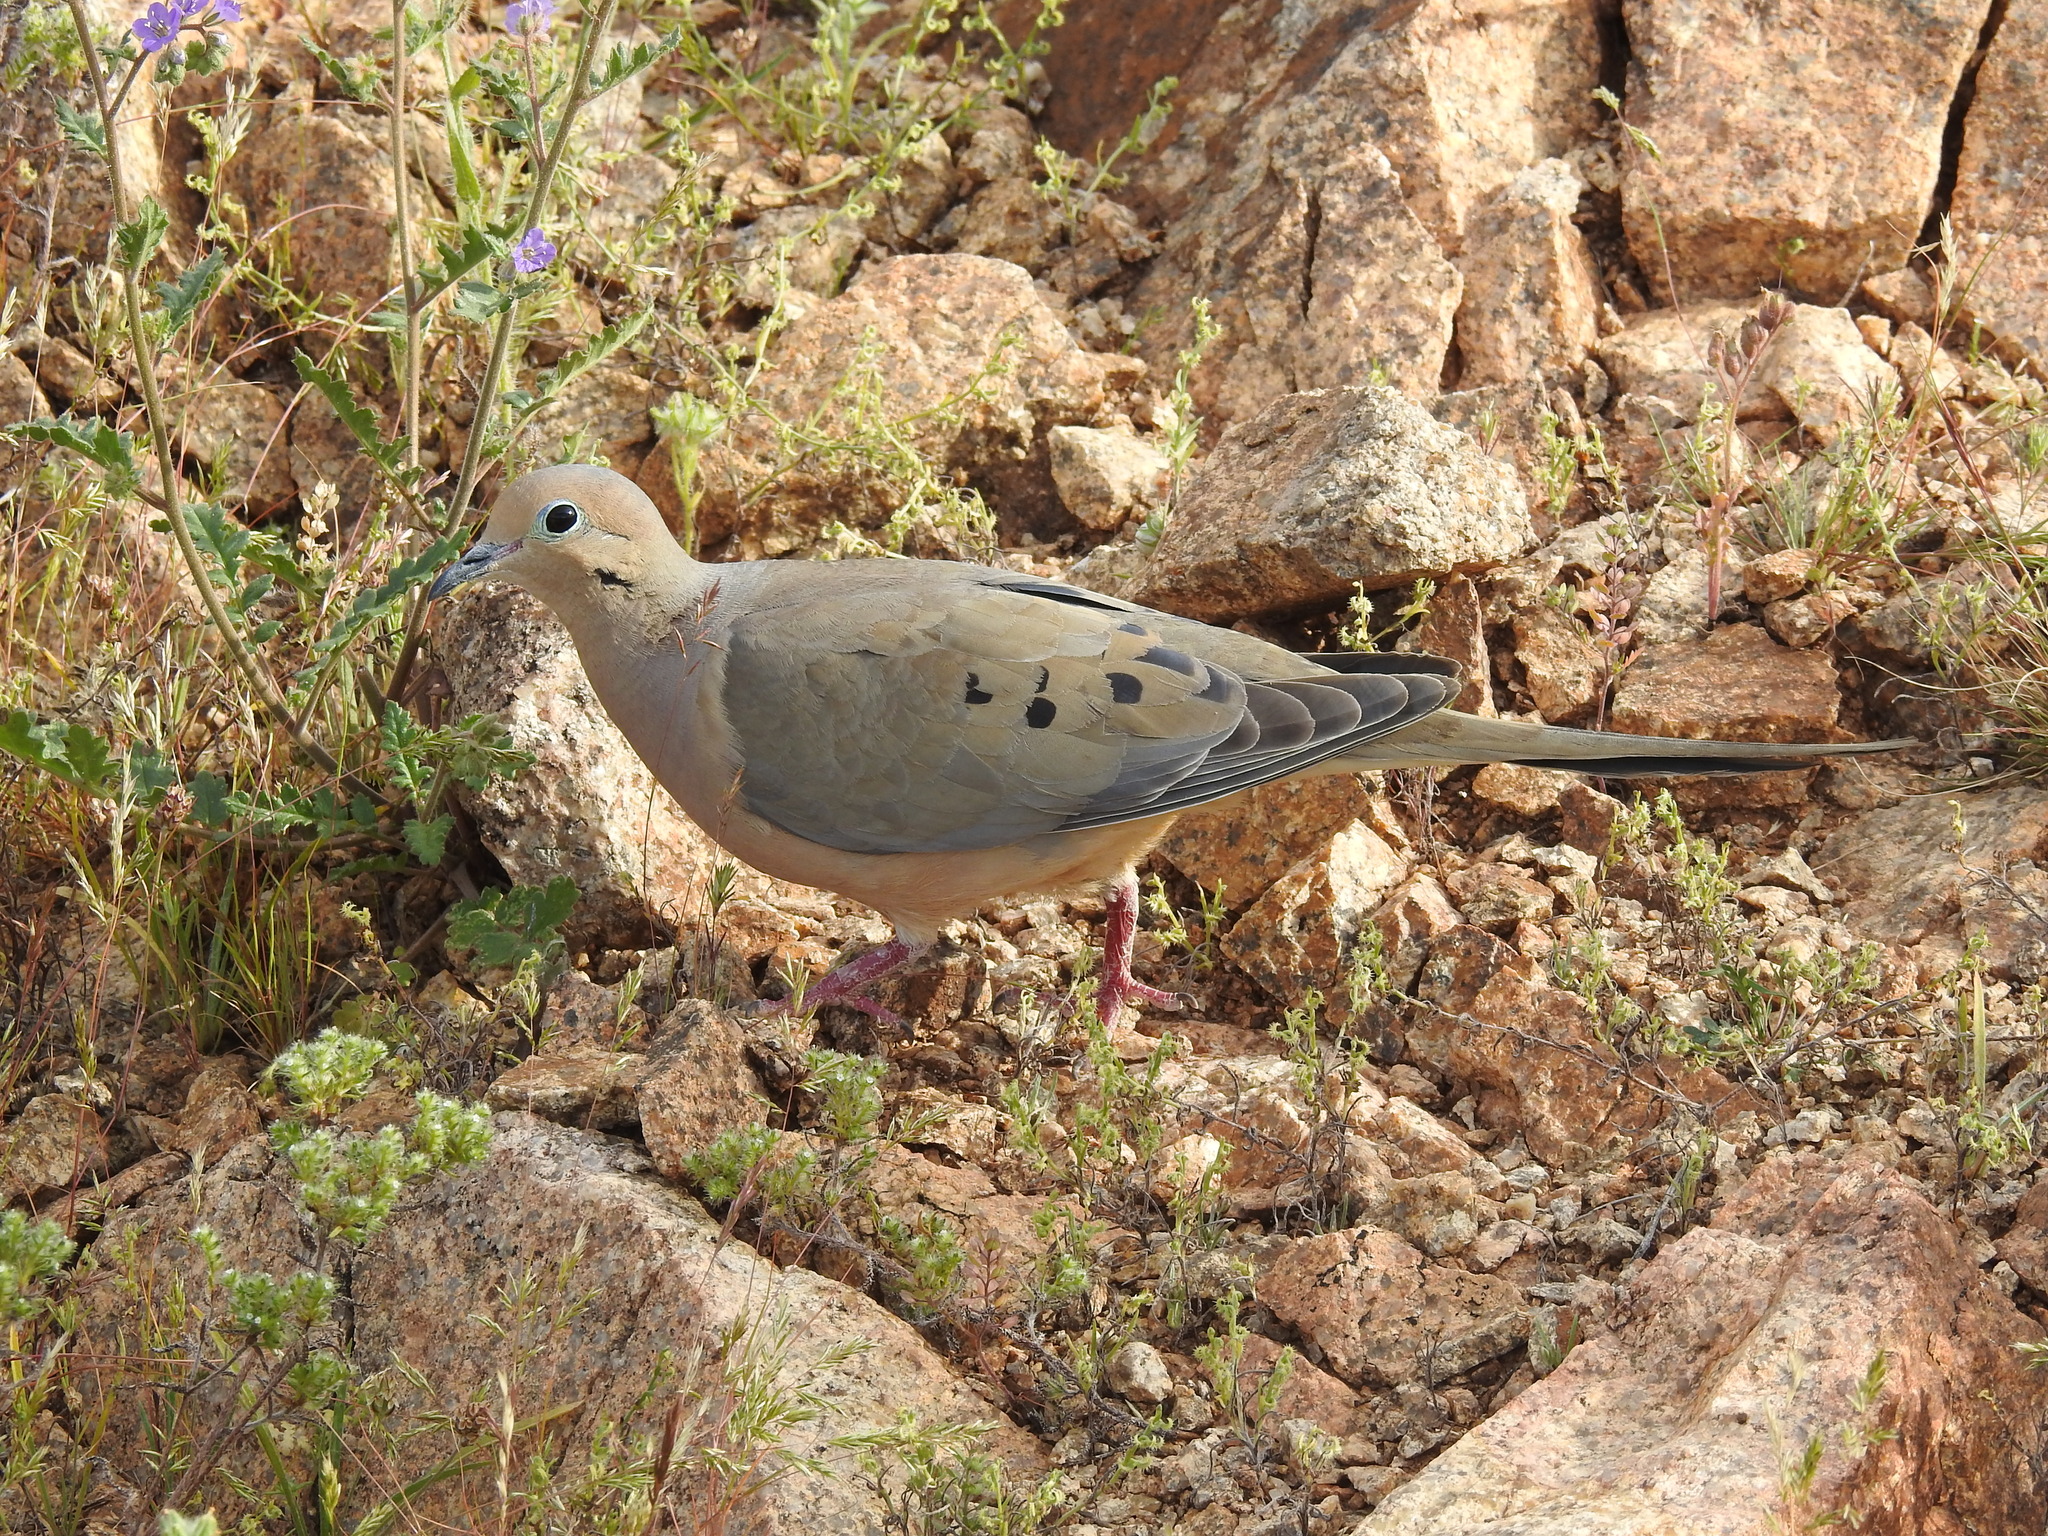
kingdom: Animalia
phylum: Chordata
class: Aves
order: Columbiformes
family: Columbidae
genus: Zenaida
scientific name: Zenaida macroura
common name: Mourning dove
